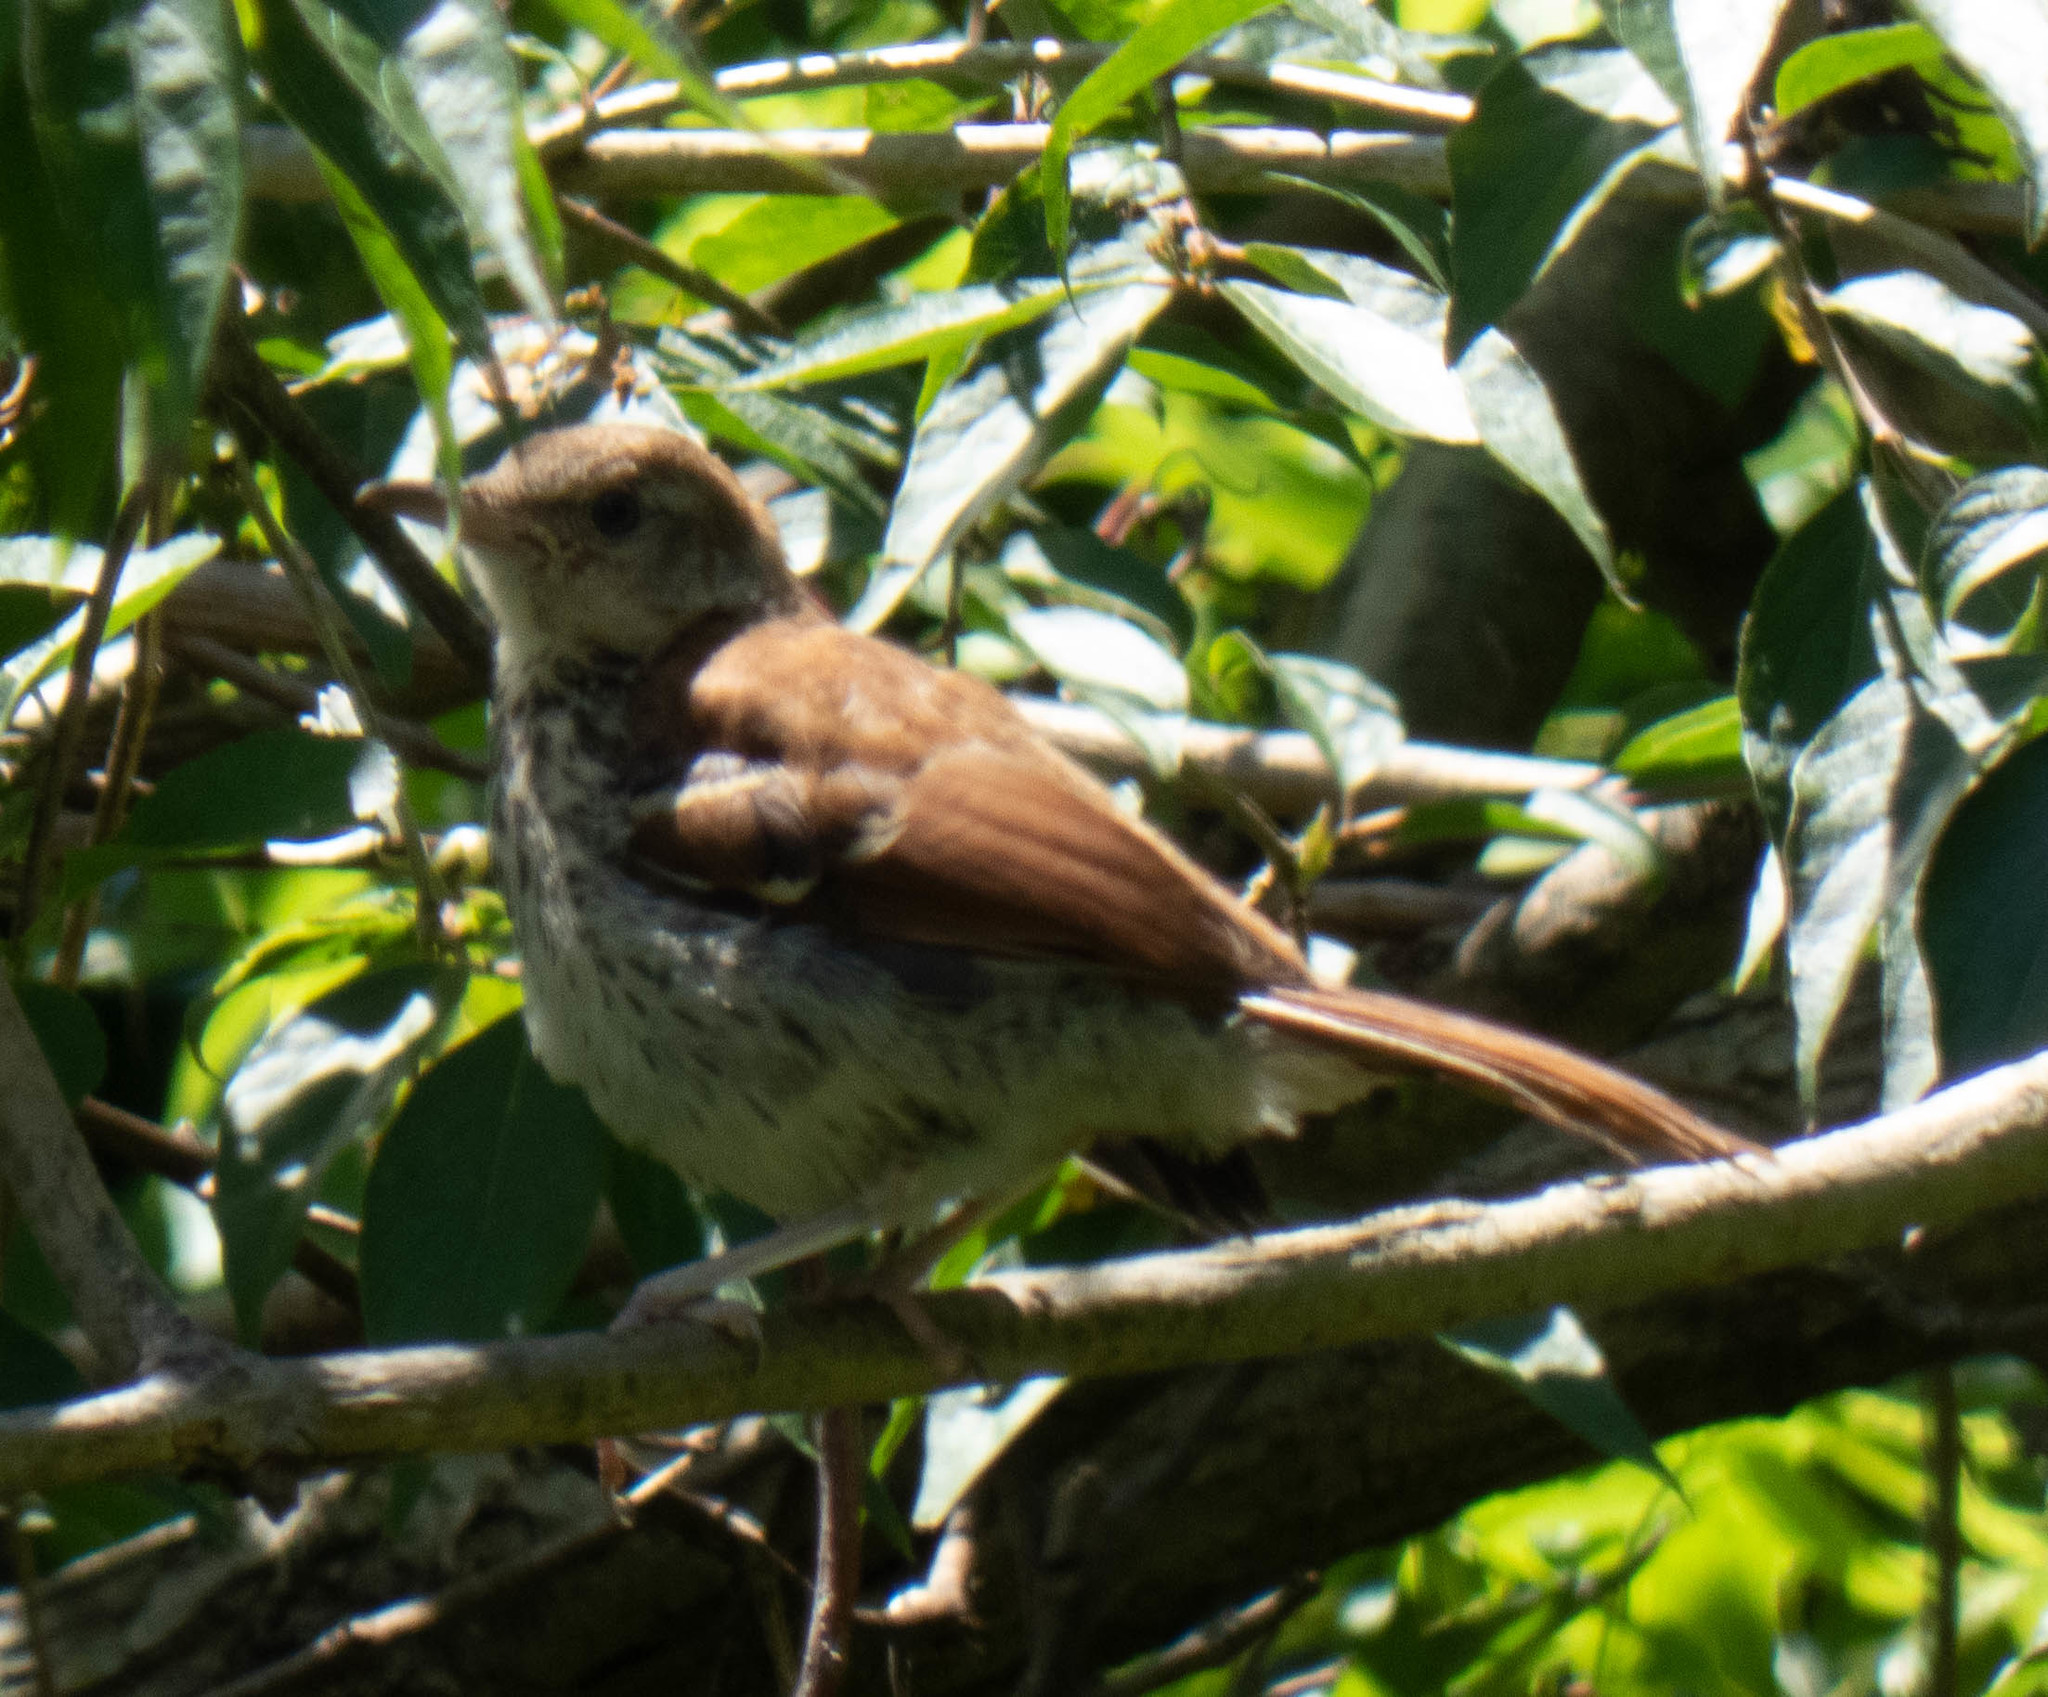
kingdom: Animalia
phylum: Chordata
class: Aves
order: Passeriformes
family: Mimidae
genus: Toxostoma
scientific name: Toxostoma rufum
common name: Brown thrasher
